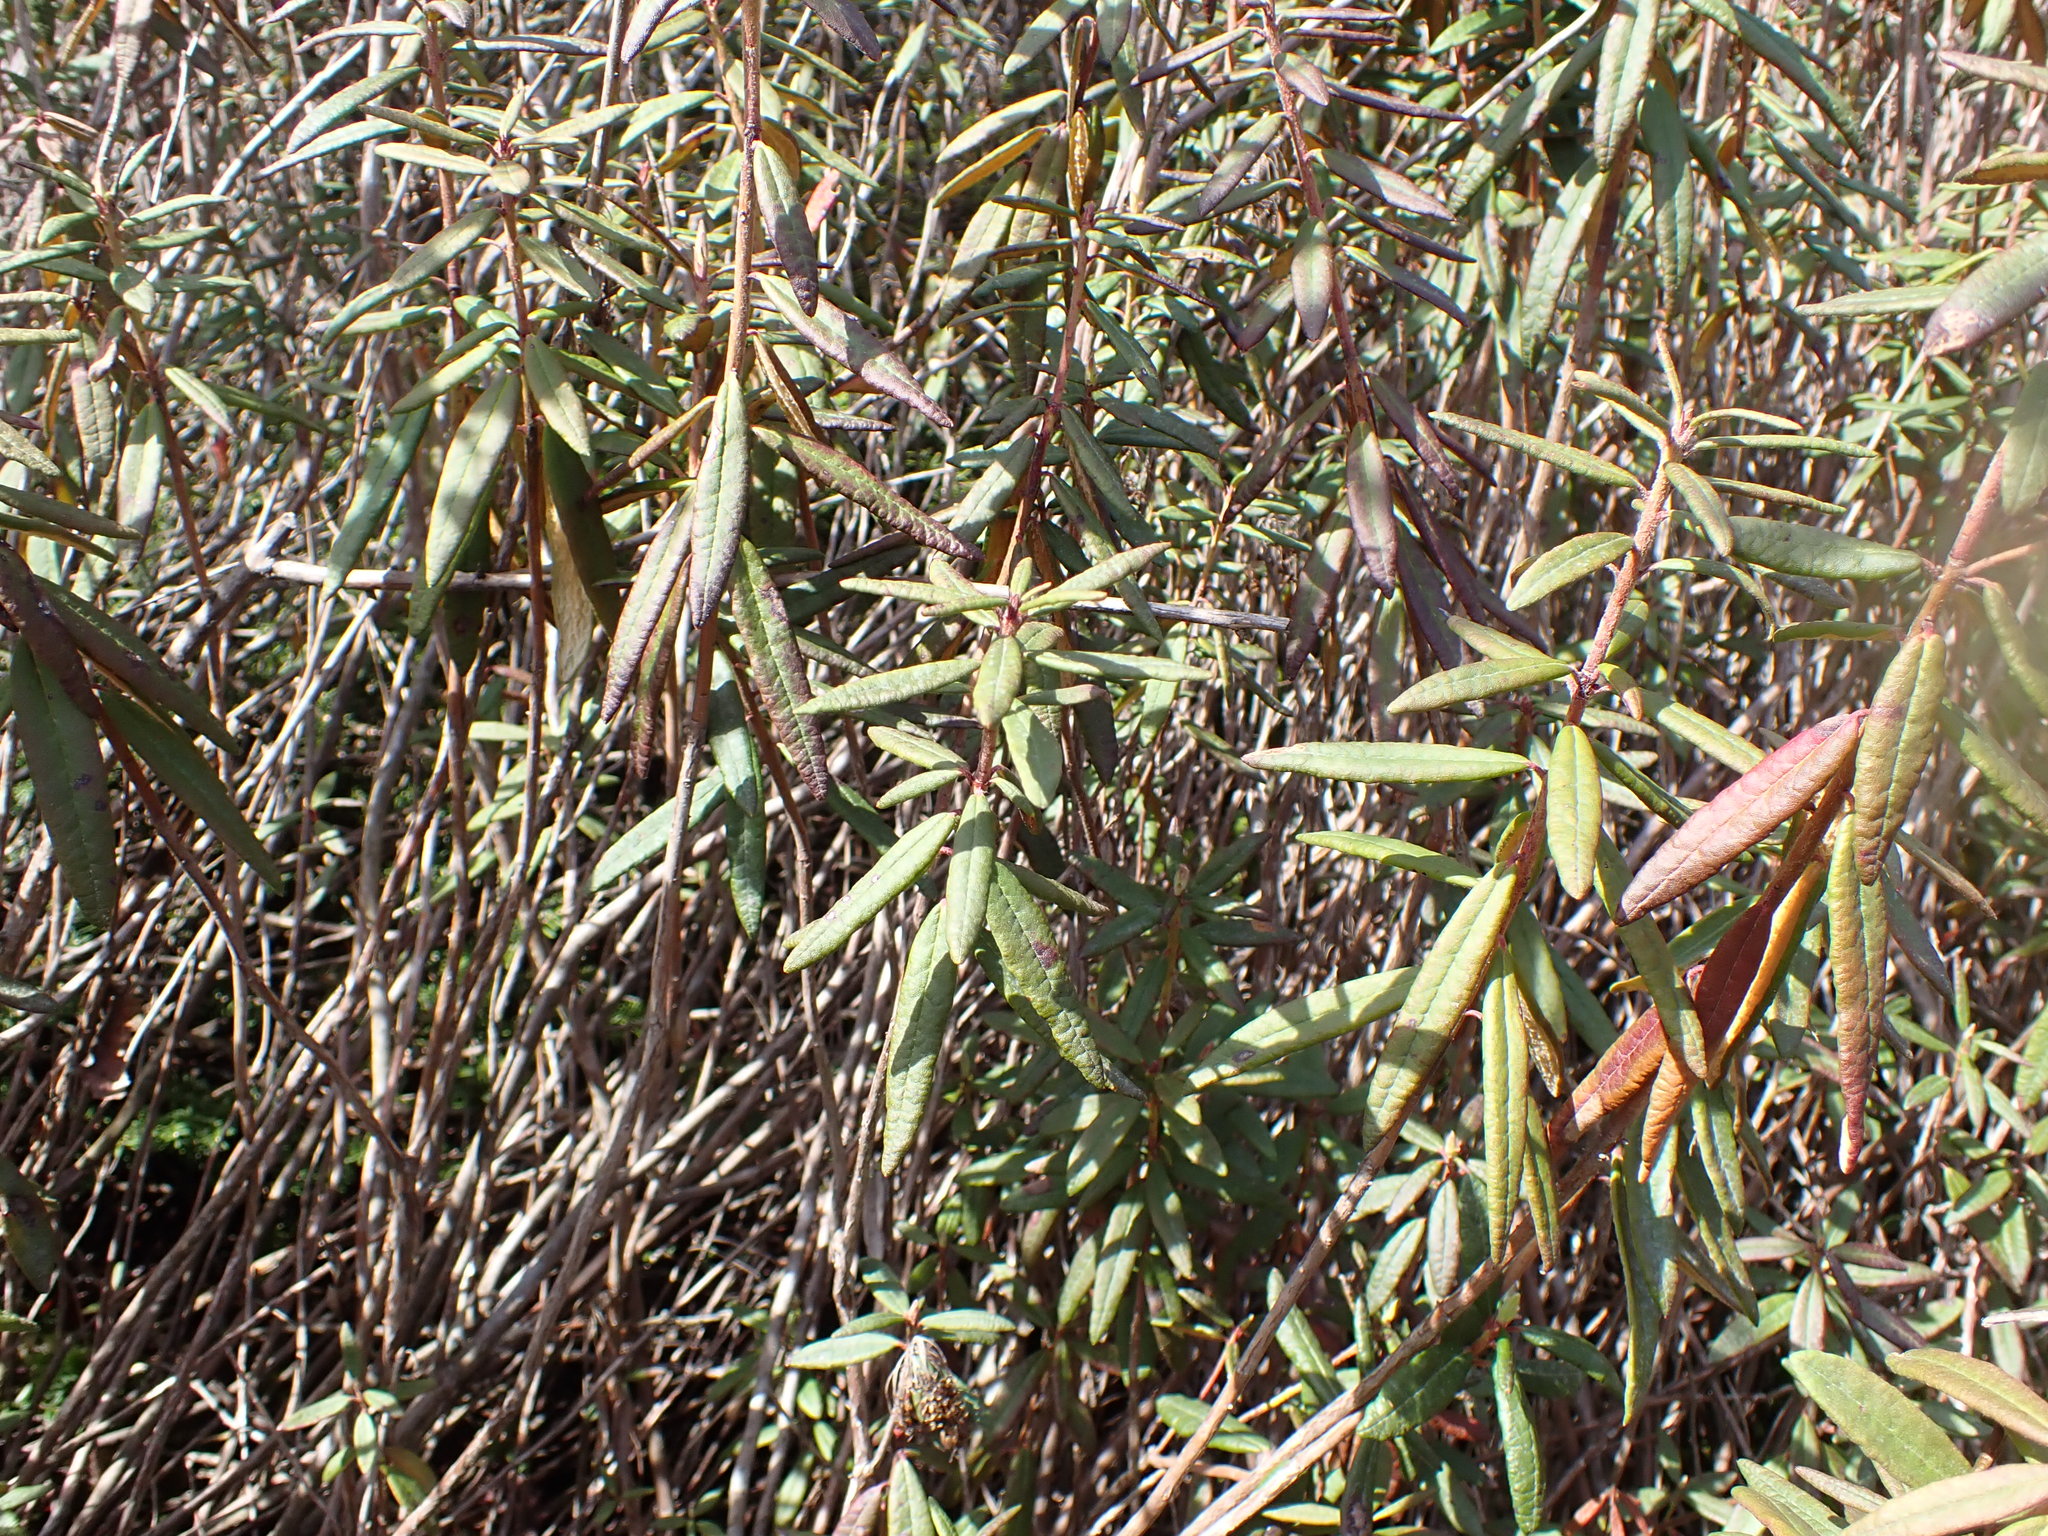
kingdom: Plantae
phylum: Tracheophyta
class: Magnoliopsida
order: Ericales
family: Ericaceae
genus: Rhododendron
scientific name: Rhododendron groenlandicum
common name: Bog labrador tea
